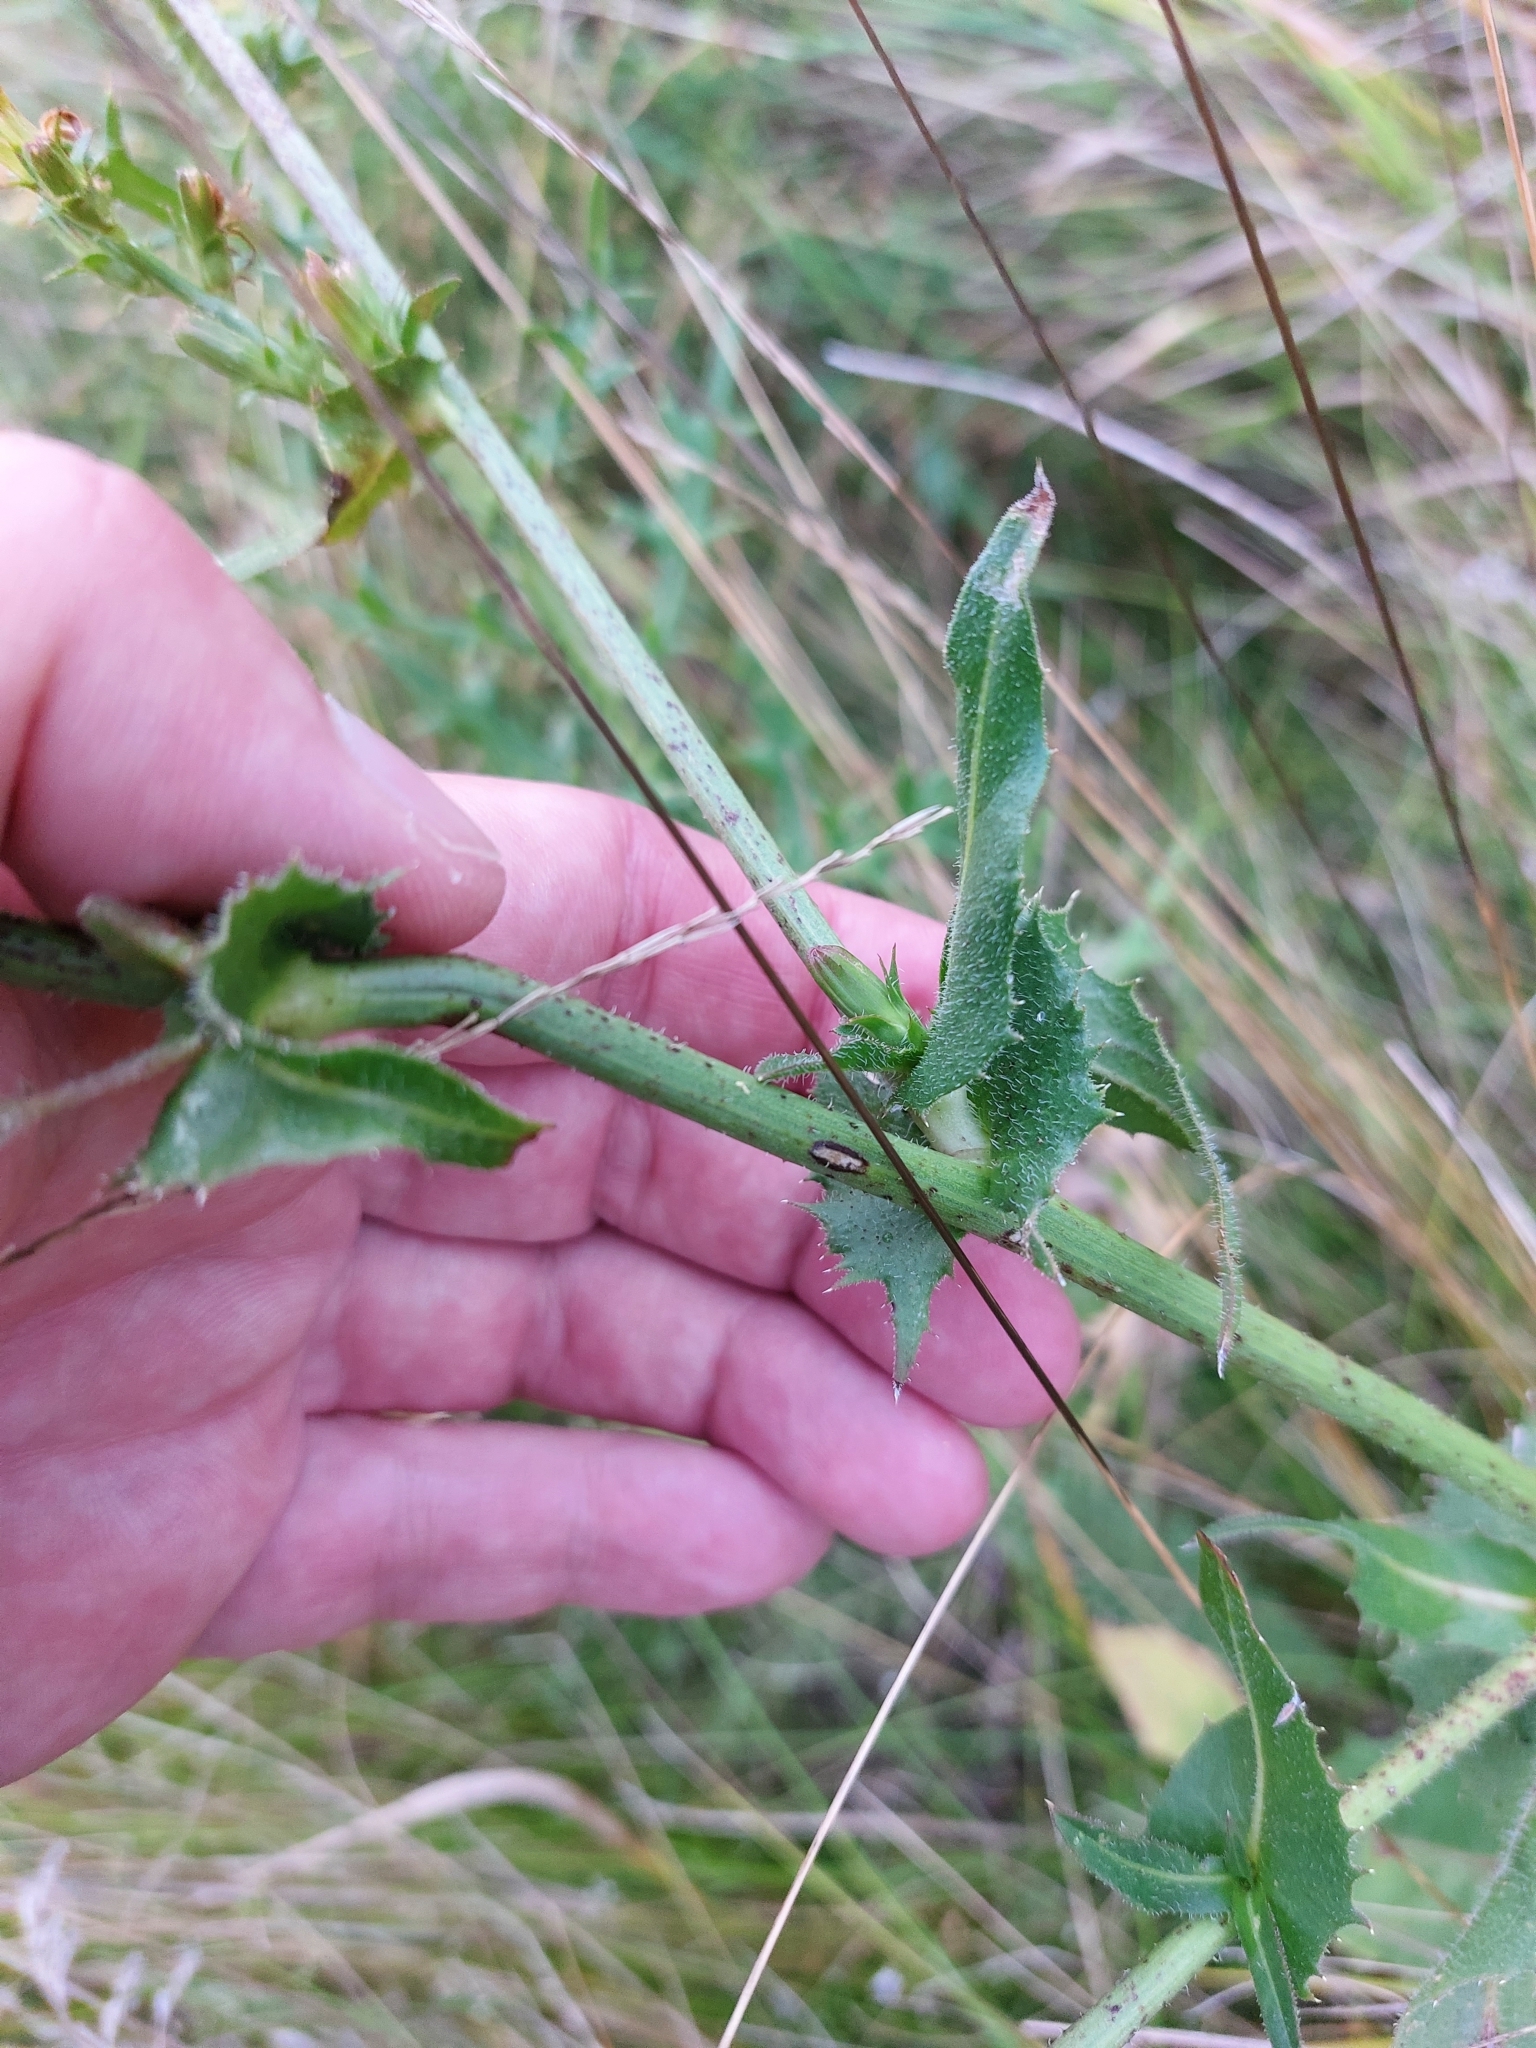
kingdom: Plantae
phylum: Tracheophyta
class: Magnoliopsida
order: Asterales
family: Asteraceae
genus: Cichorium
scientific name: Cichorium intybus
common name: Chicory
